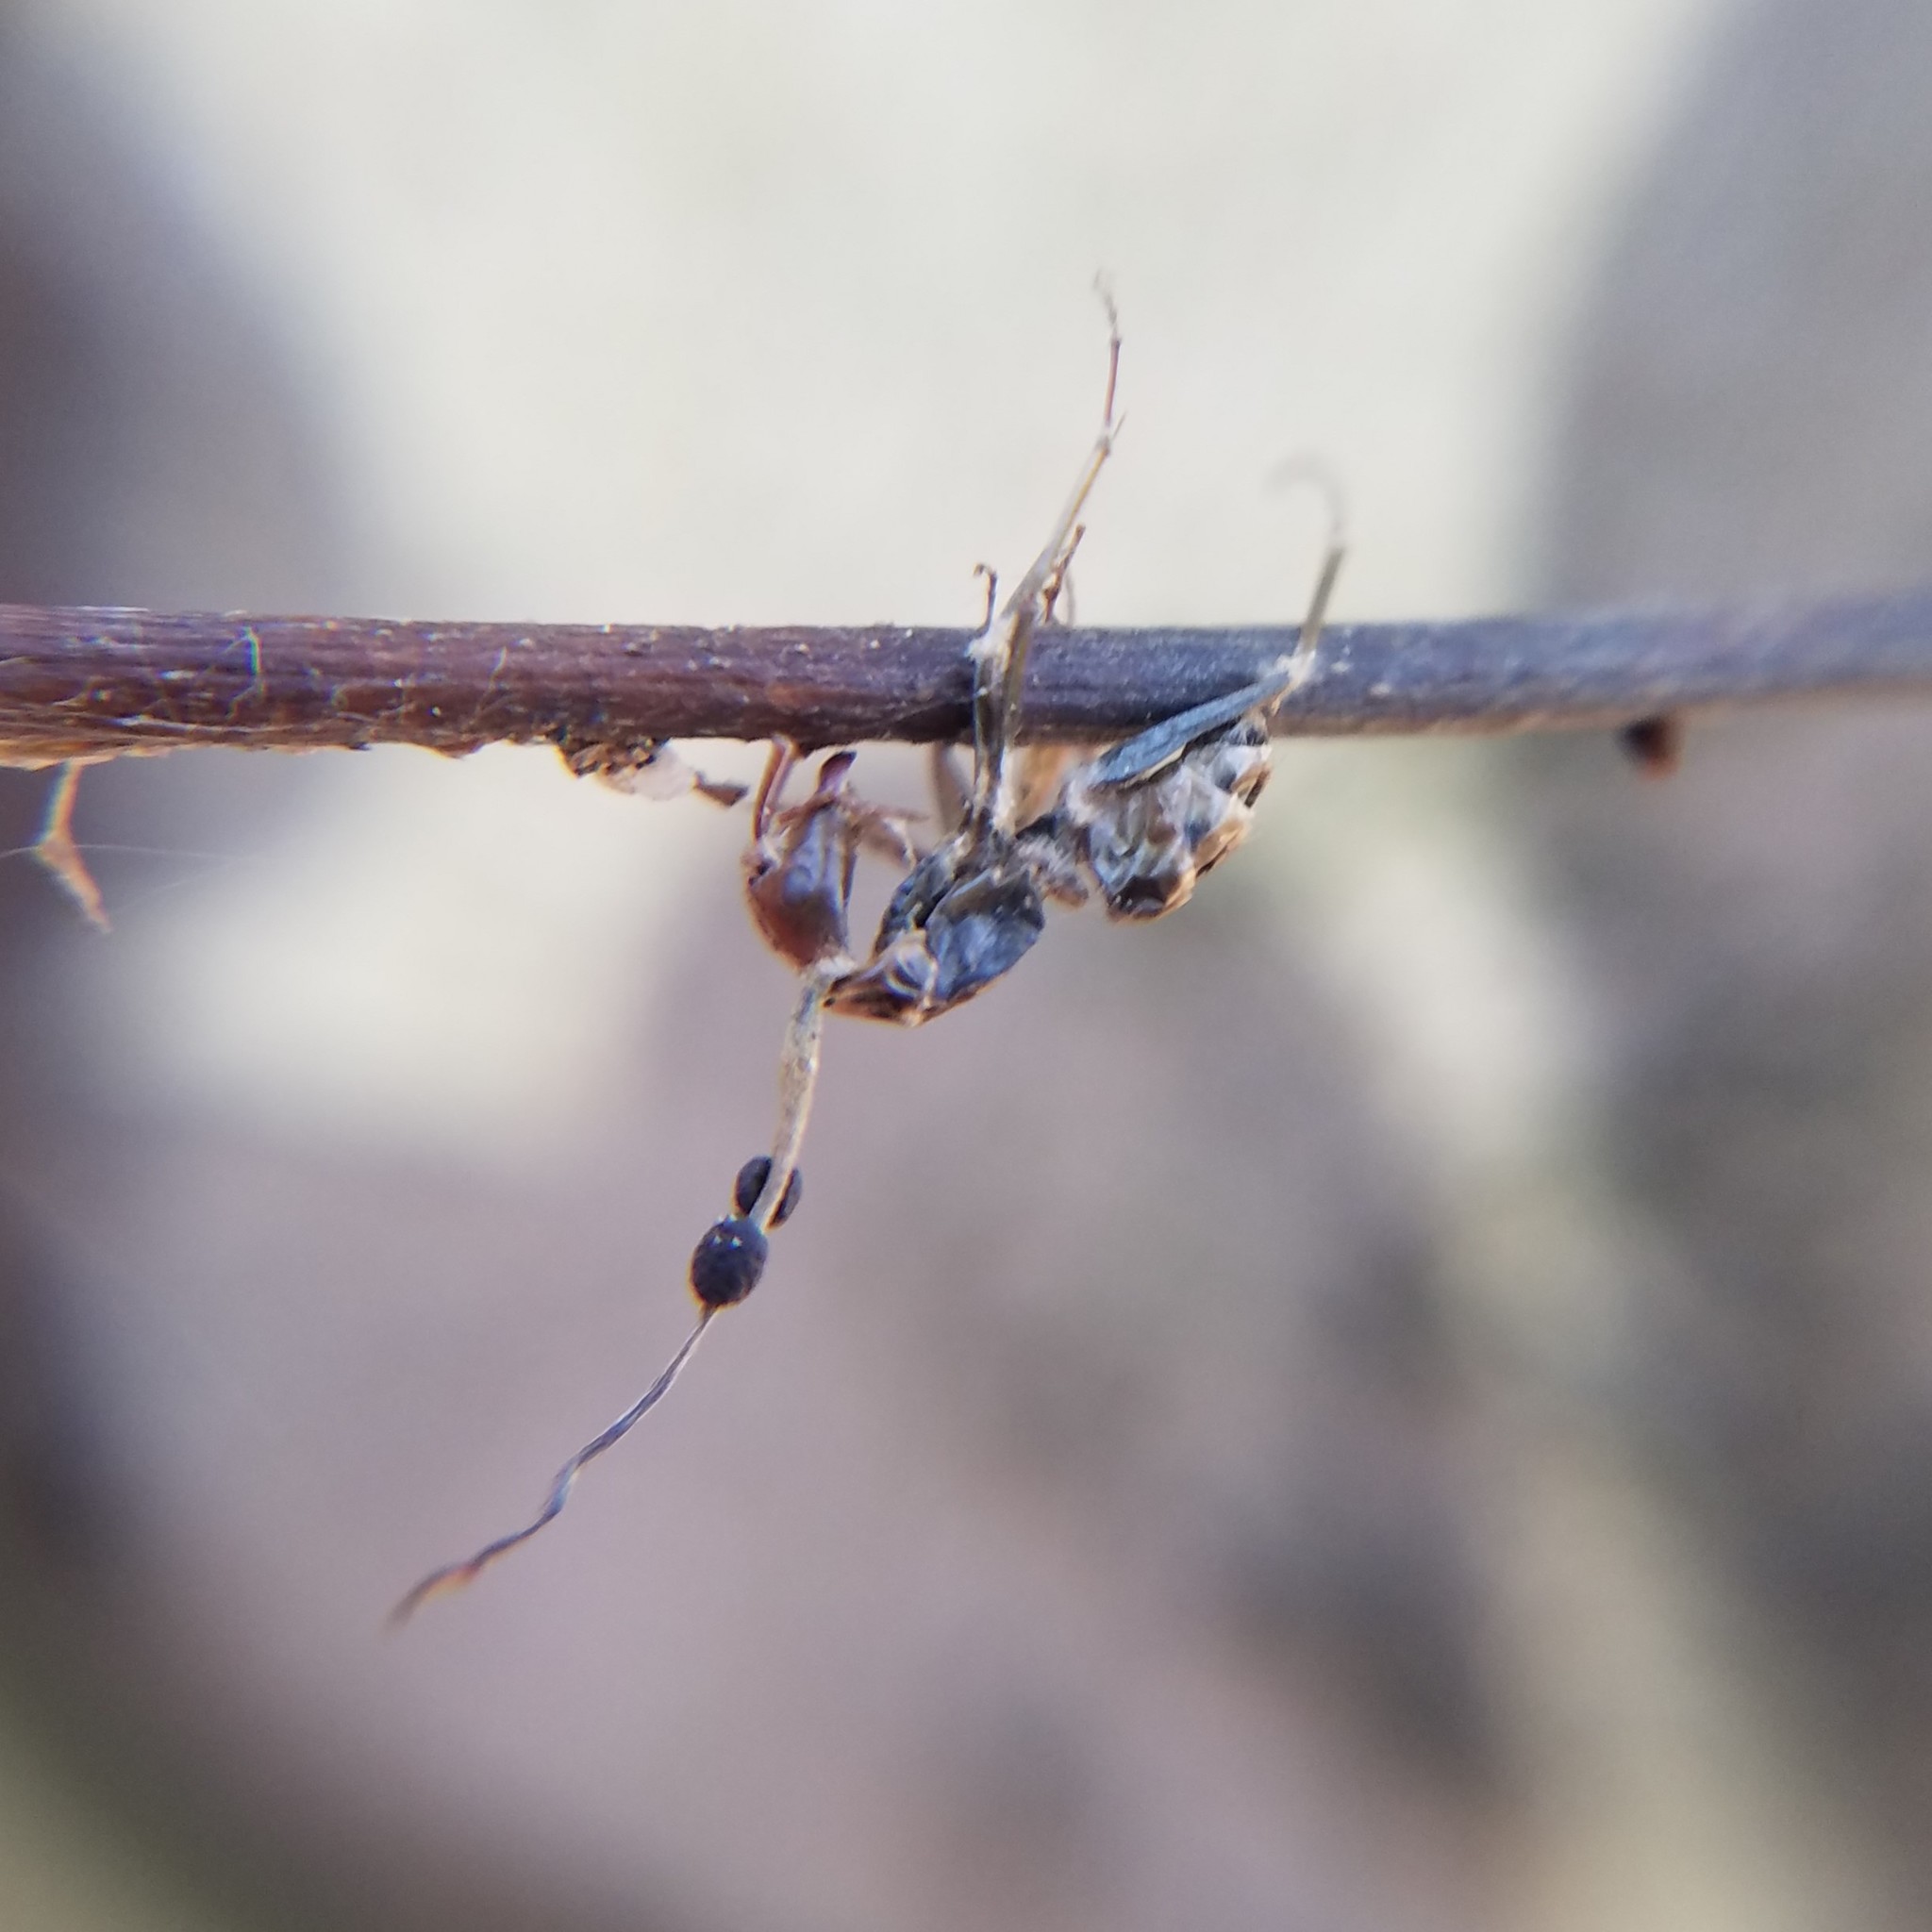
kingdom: Fungi
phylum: Ascomycota
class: Sordariomycetes
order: Hypocreales
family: Ophiocordycipitaceae
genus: Ophiocordyceps
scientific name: Ophiocordyceps kimflemingiae
